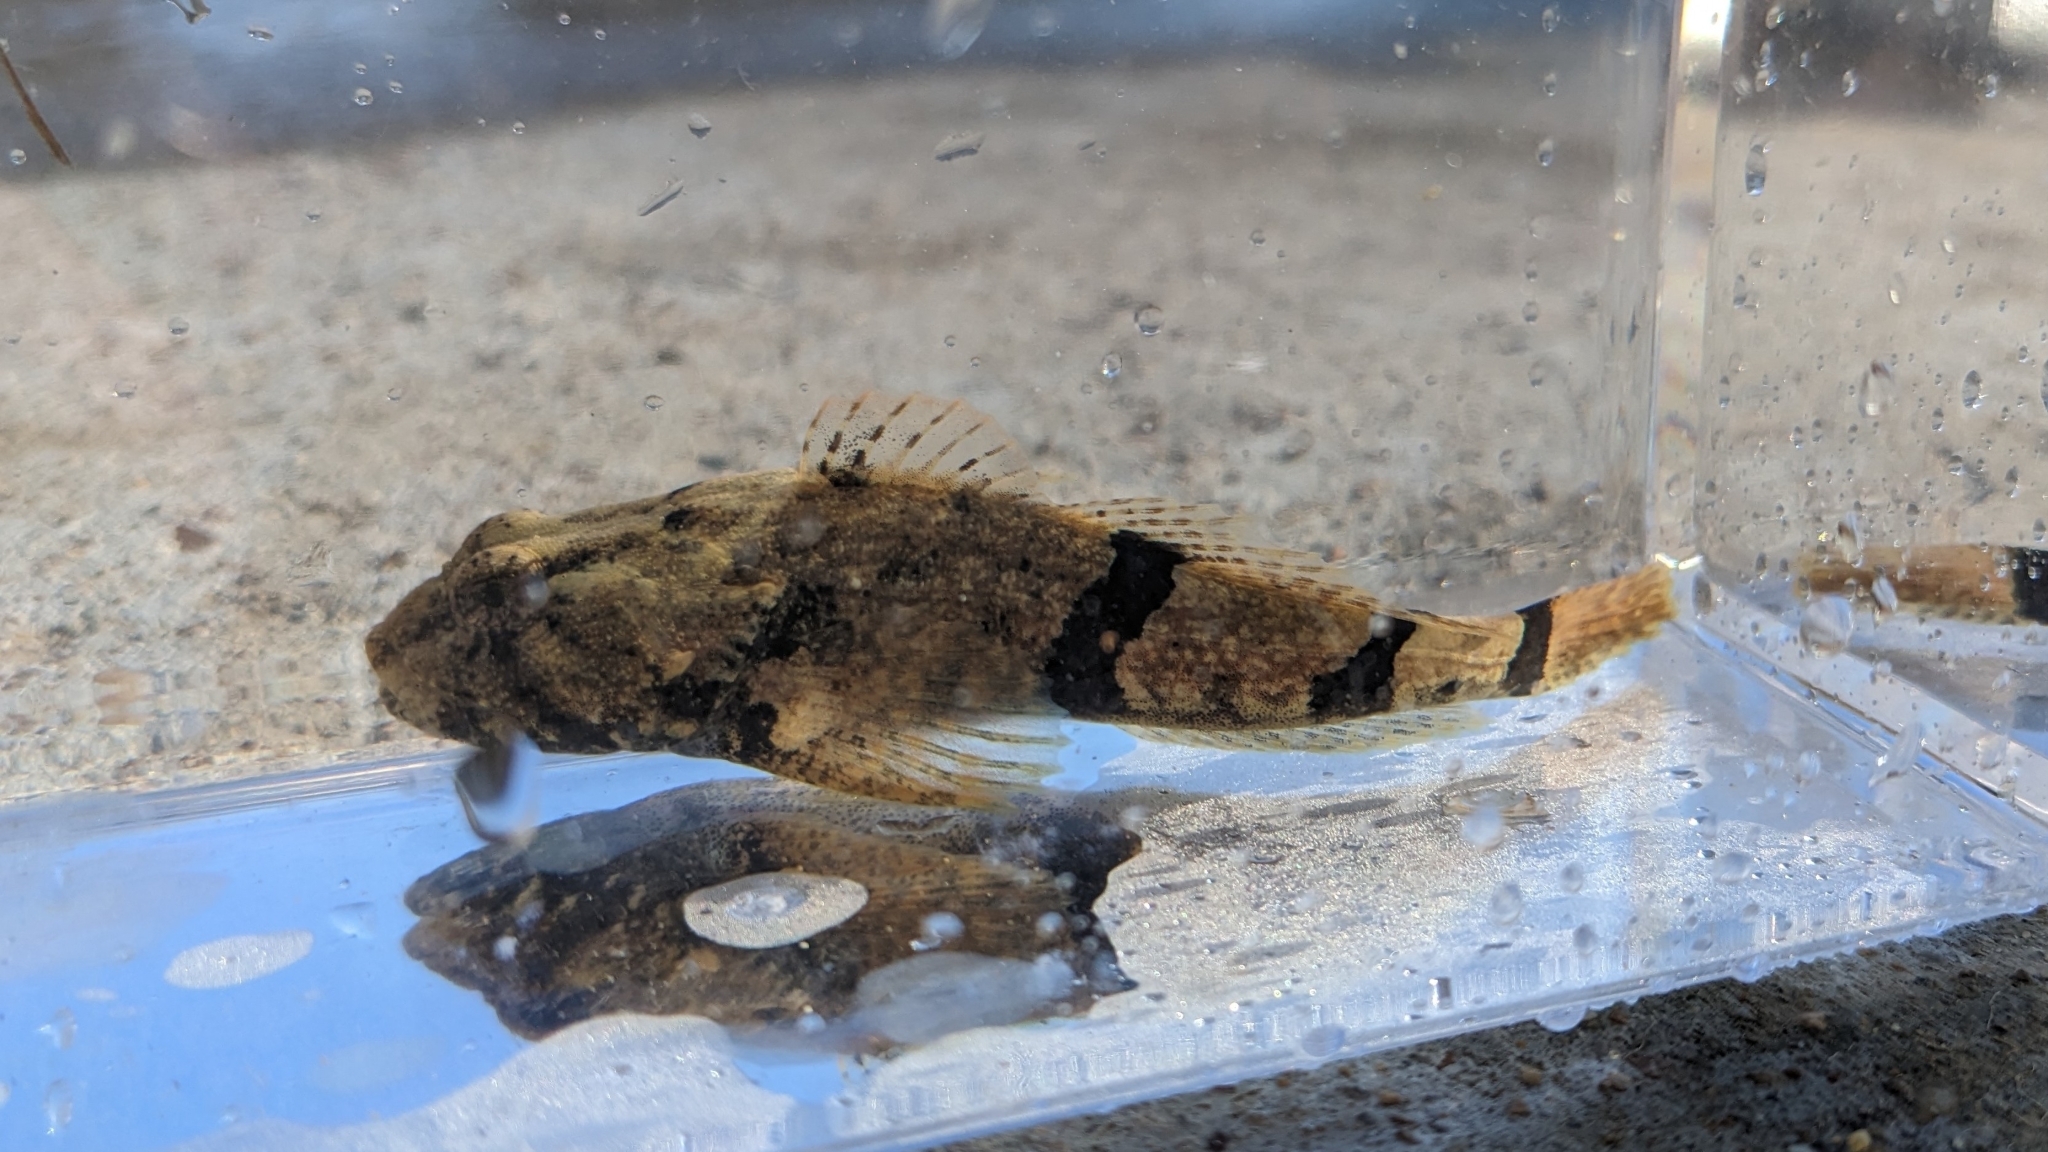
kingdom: Animalia
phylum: Chordata
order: Scorpaeniformes
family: Cottidae
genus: Cottus
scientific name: Cottus carolinae
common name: Banded sculpin
